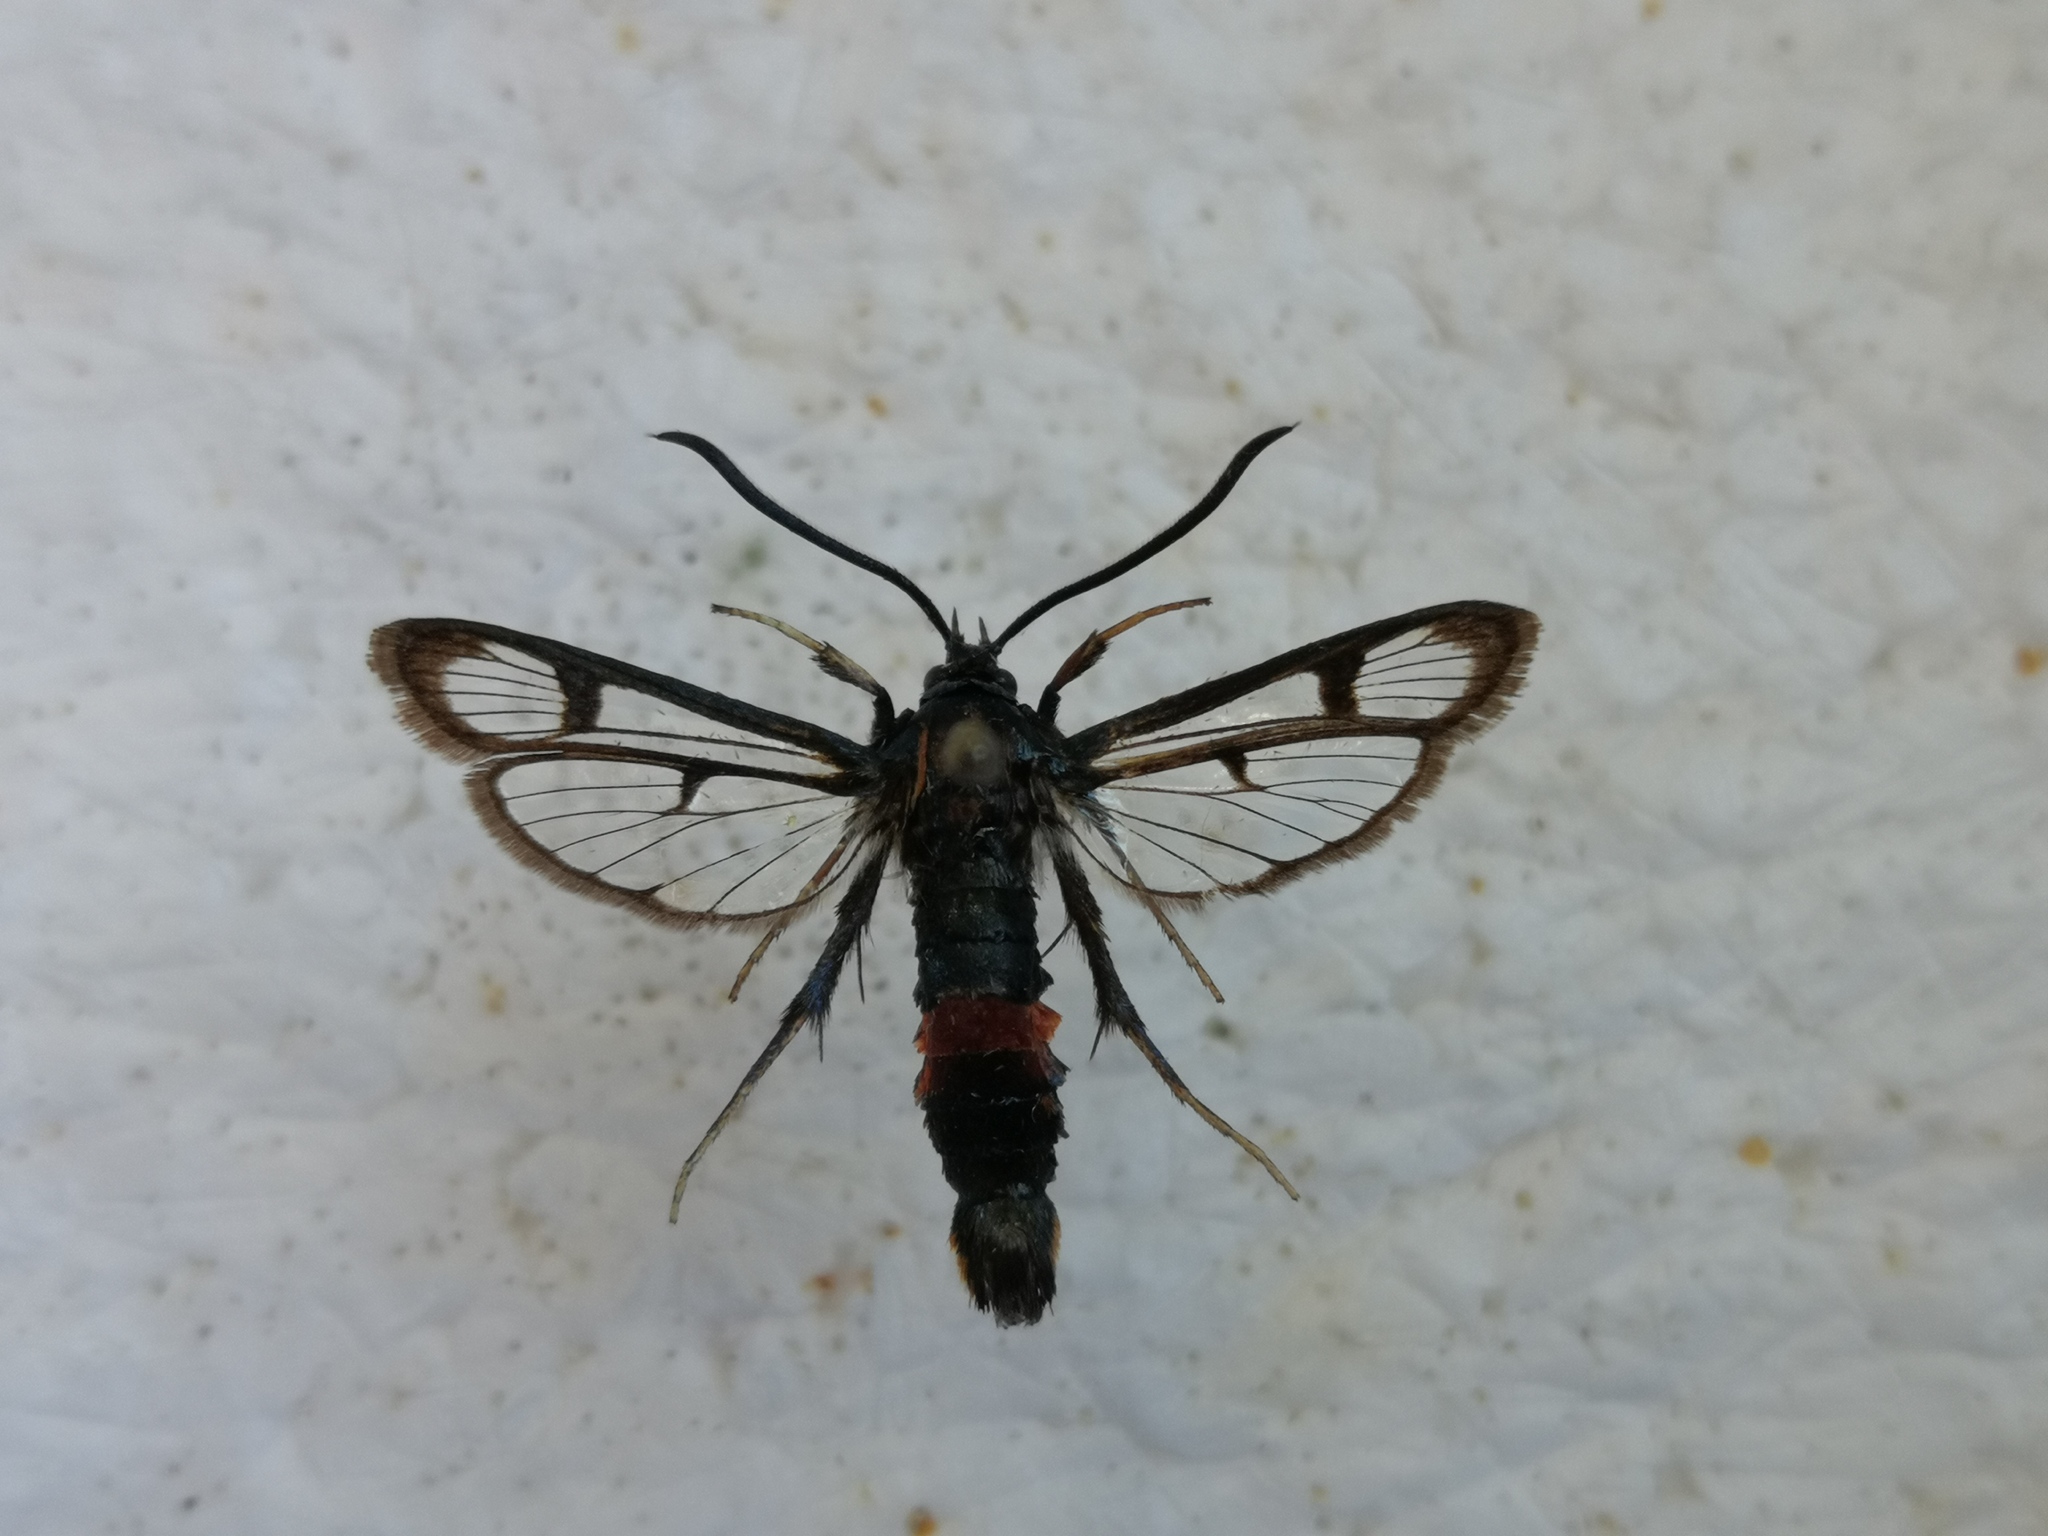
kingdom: Animalia
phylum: Arthropoda
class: Insecta
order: Lepidoptera
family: Sesiidae
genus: Synanthedon
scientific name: Synanthedon stomoxiformis
